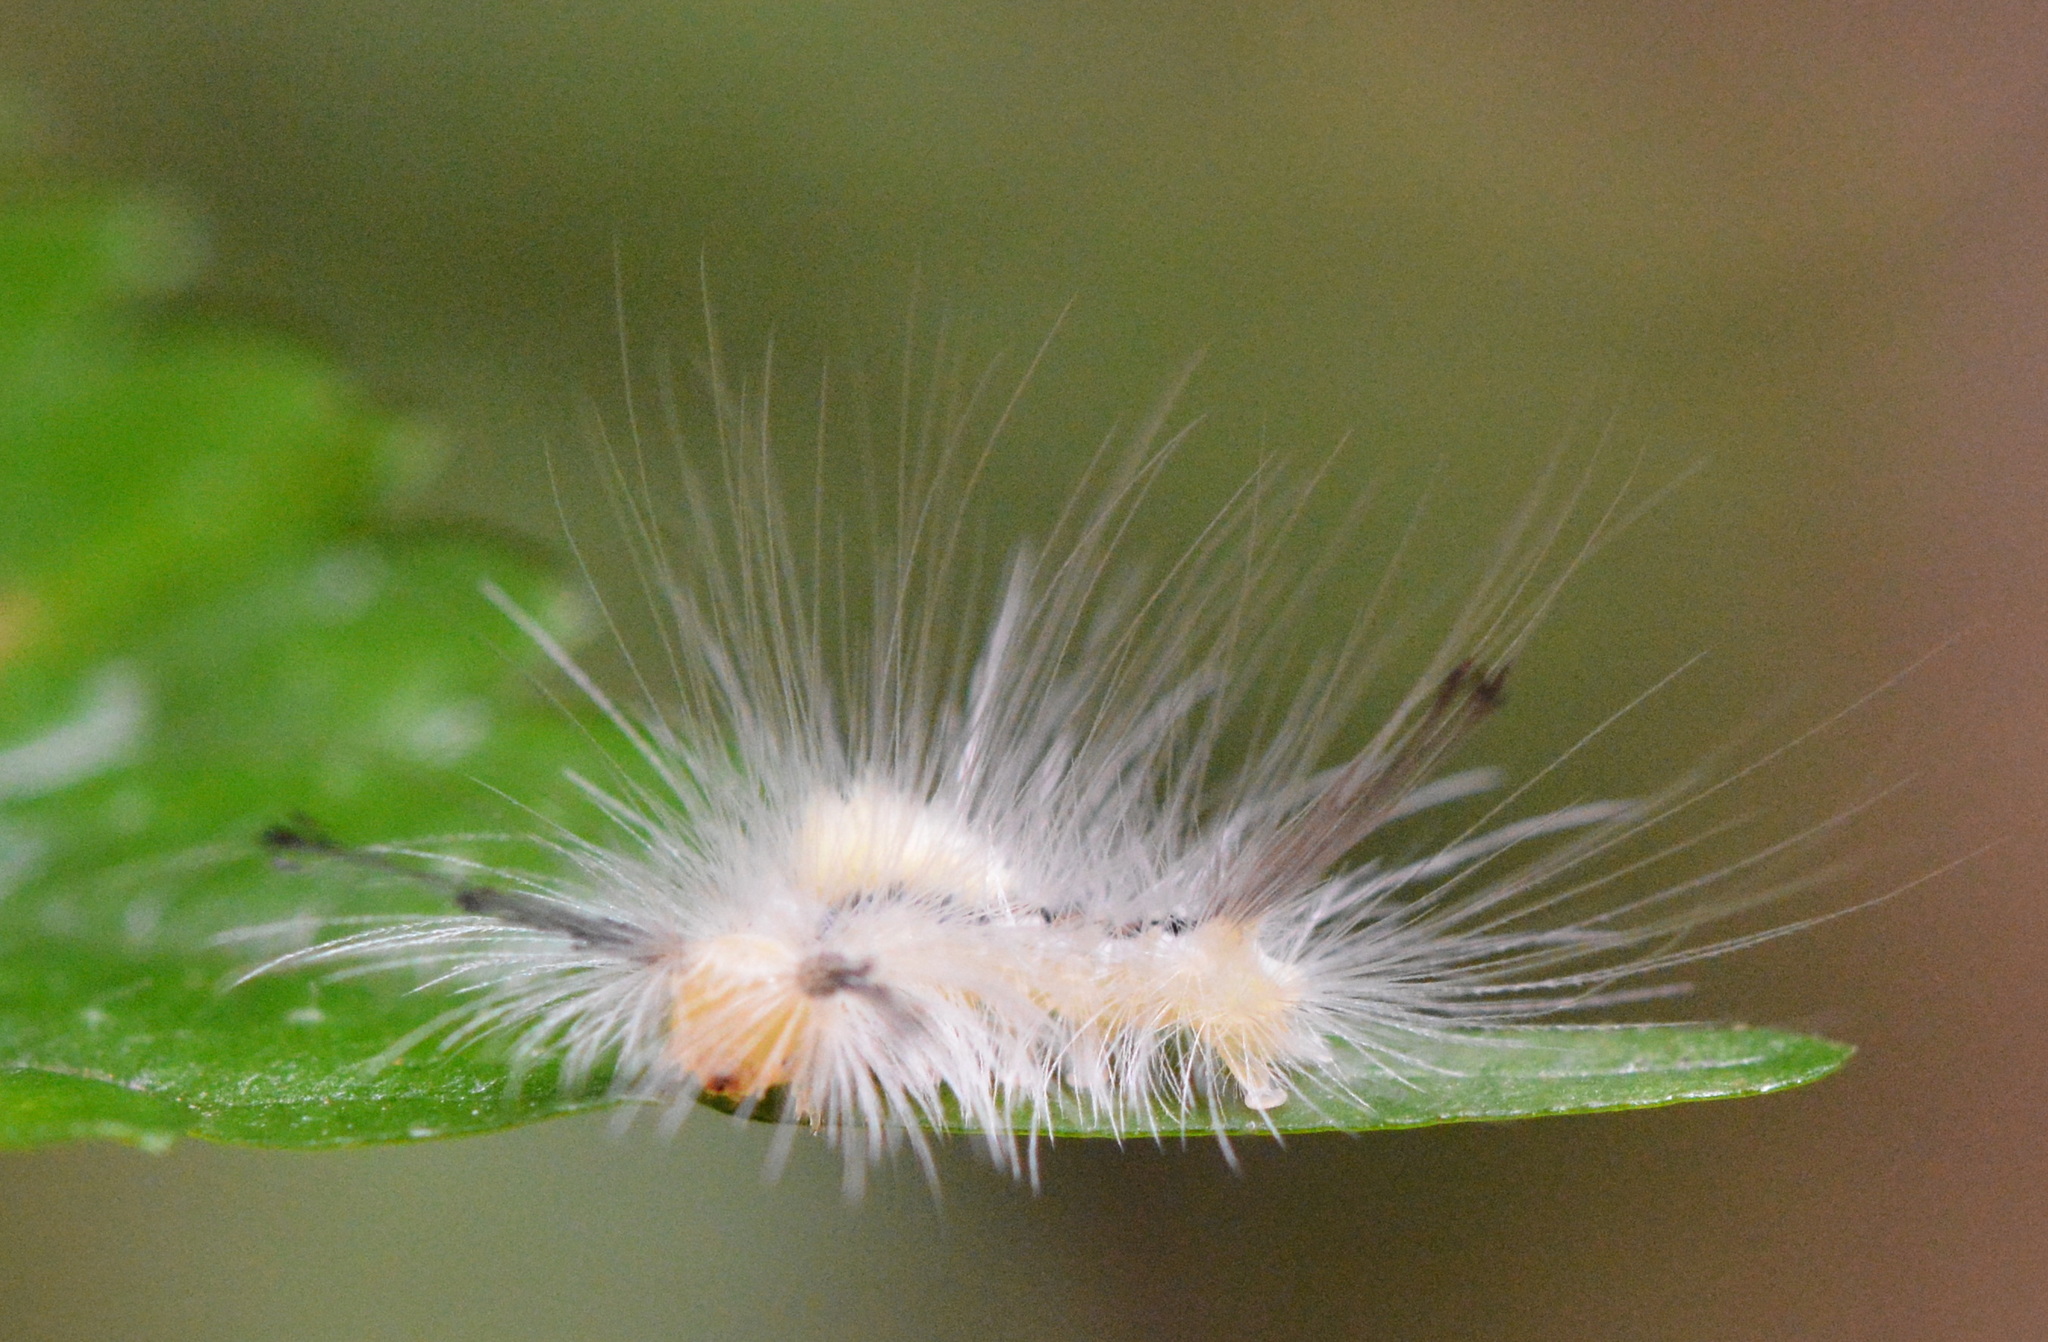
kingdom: Animalia
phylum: Arthropoda
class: Insecta
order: Lepidoptera
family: Erebidae
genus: Orgyia
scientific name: Orgyia leucostigma
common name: White-marked tussock moth
